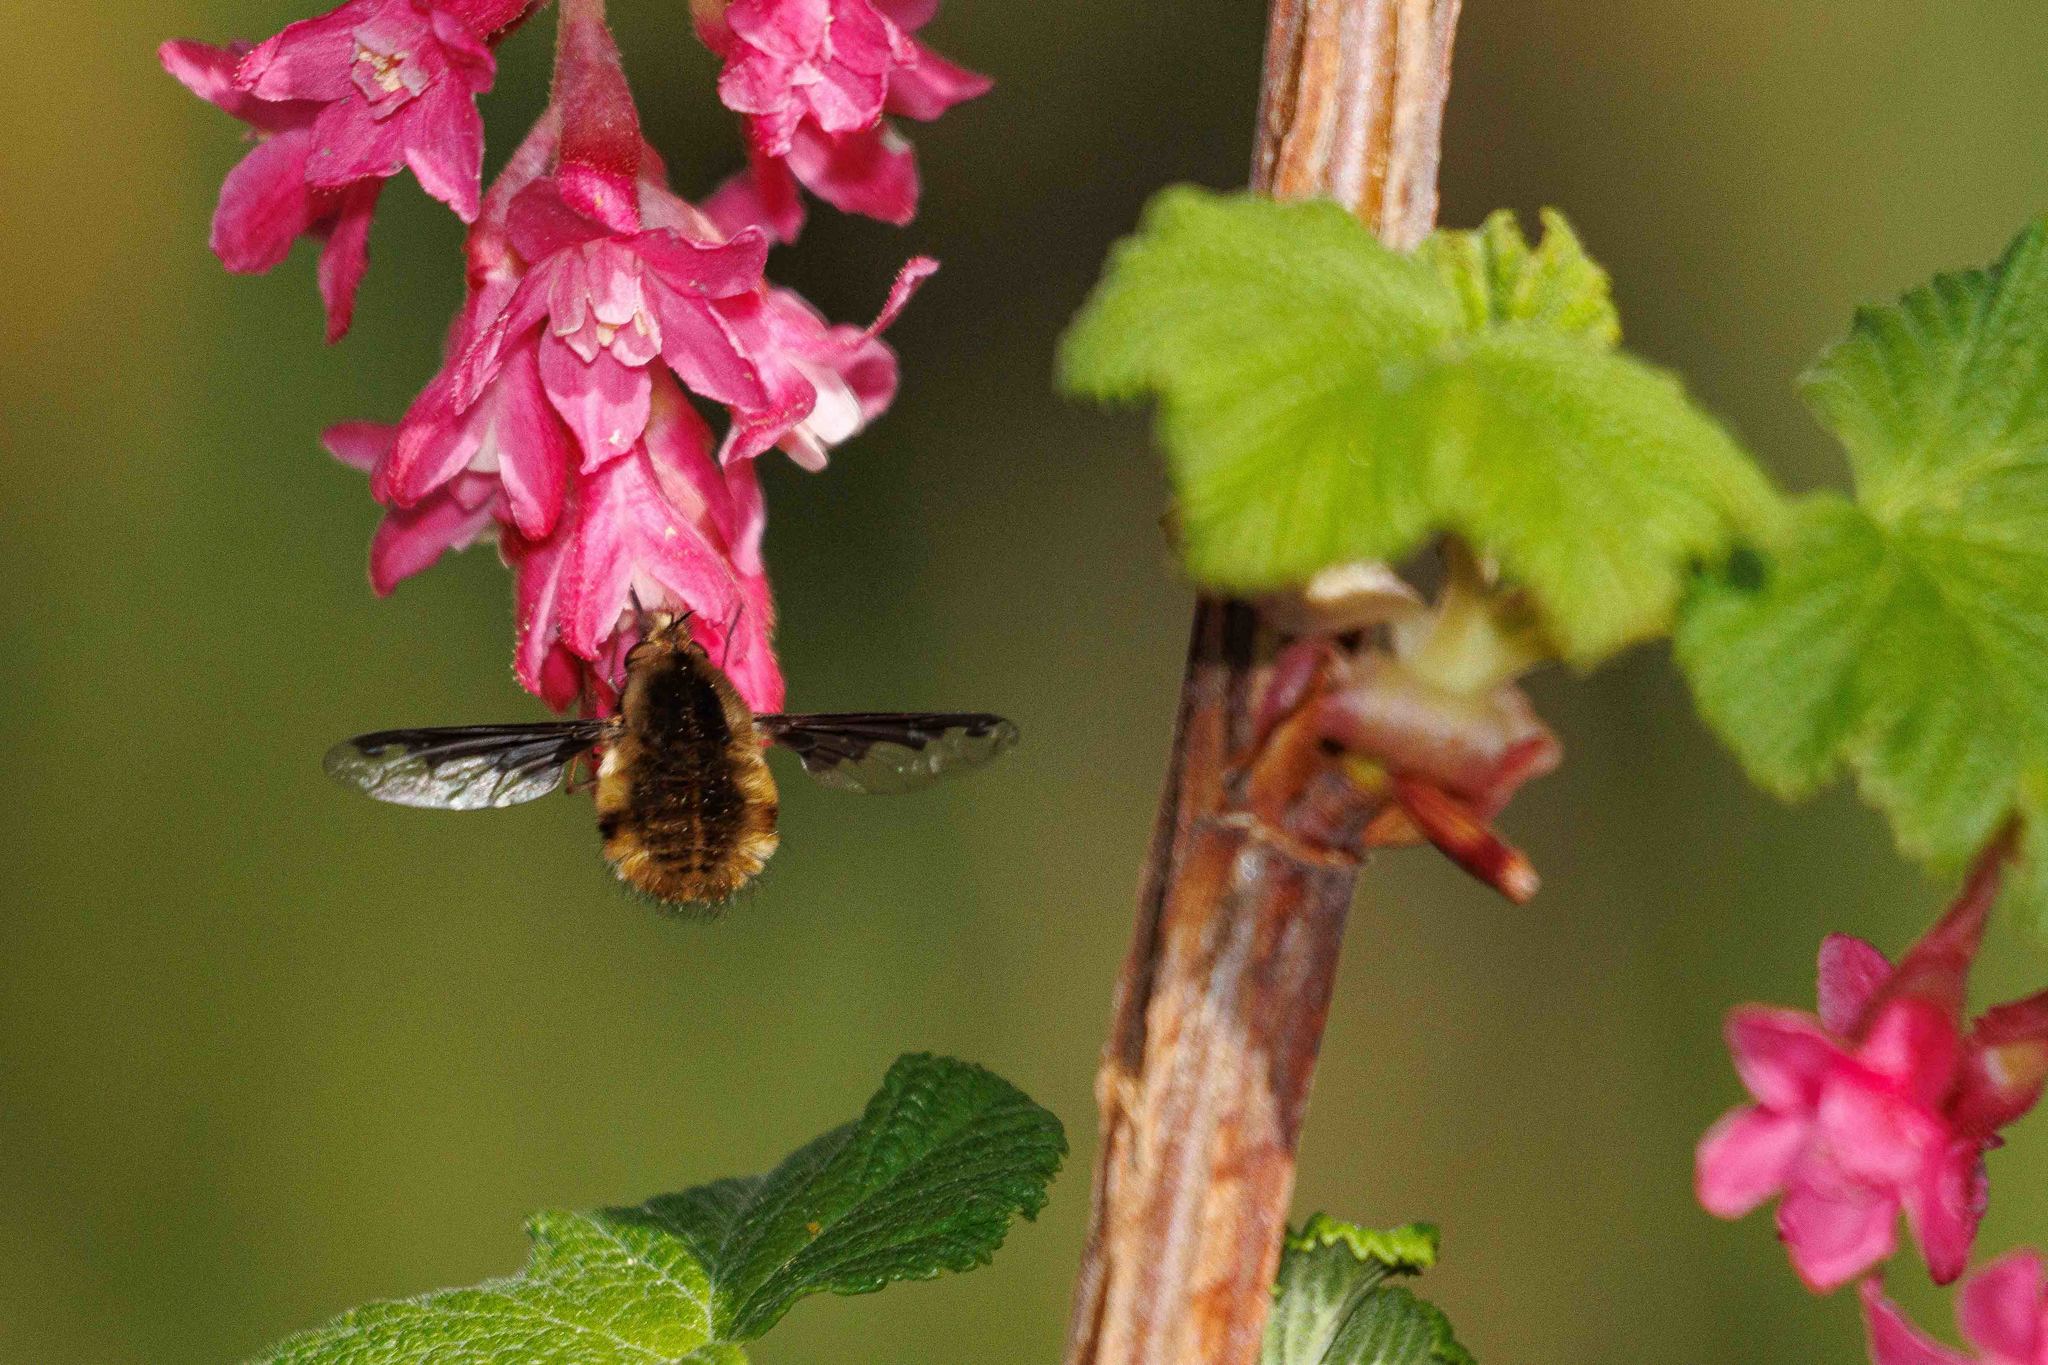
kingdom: Animalia
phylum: Arthropoda
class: Insecta
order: Diptera
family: Bombyliidae
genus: Bombylius
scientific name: Bombylius major
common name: Bee fly
